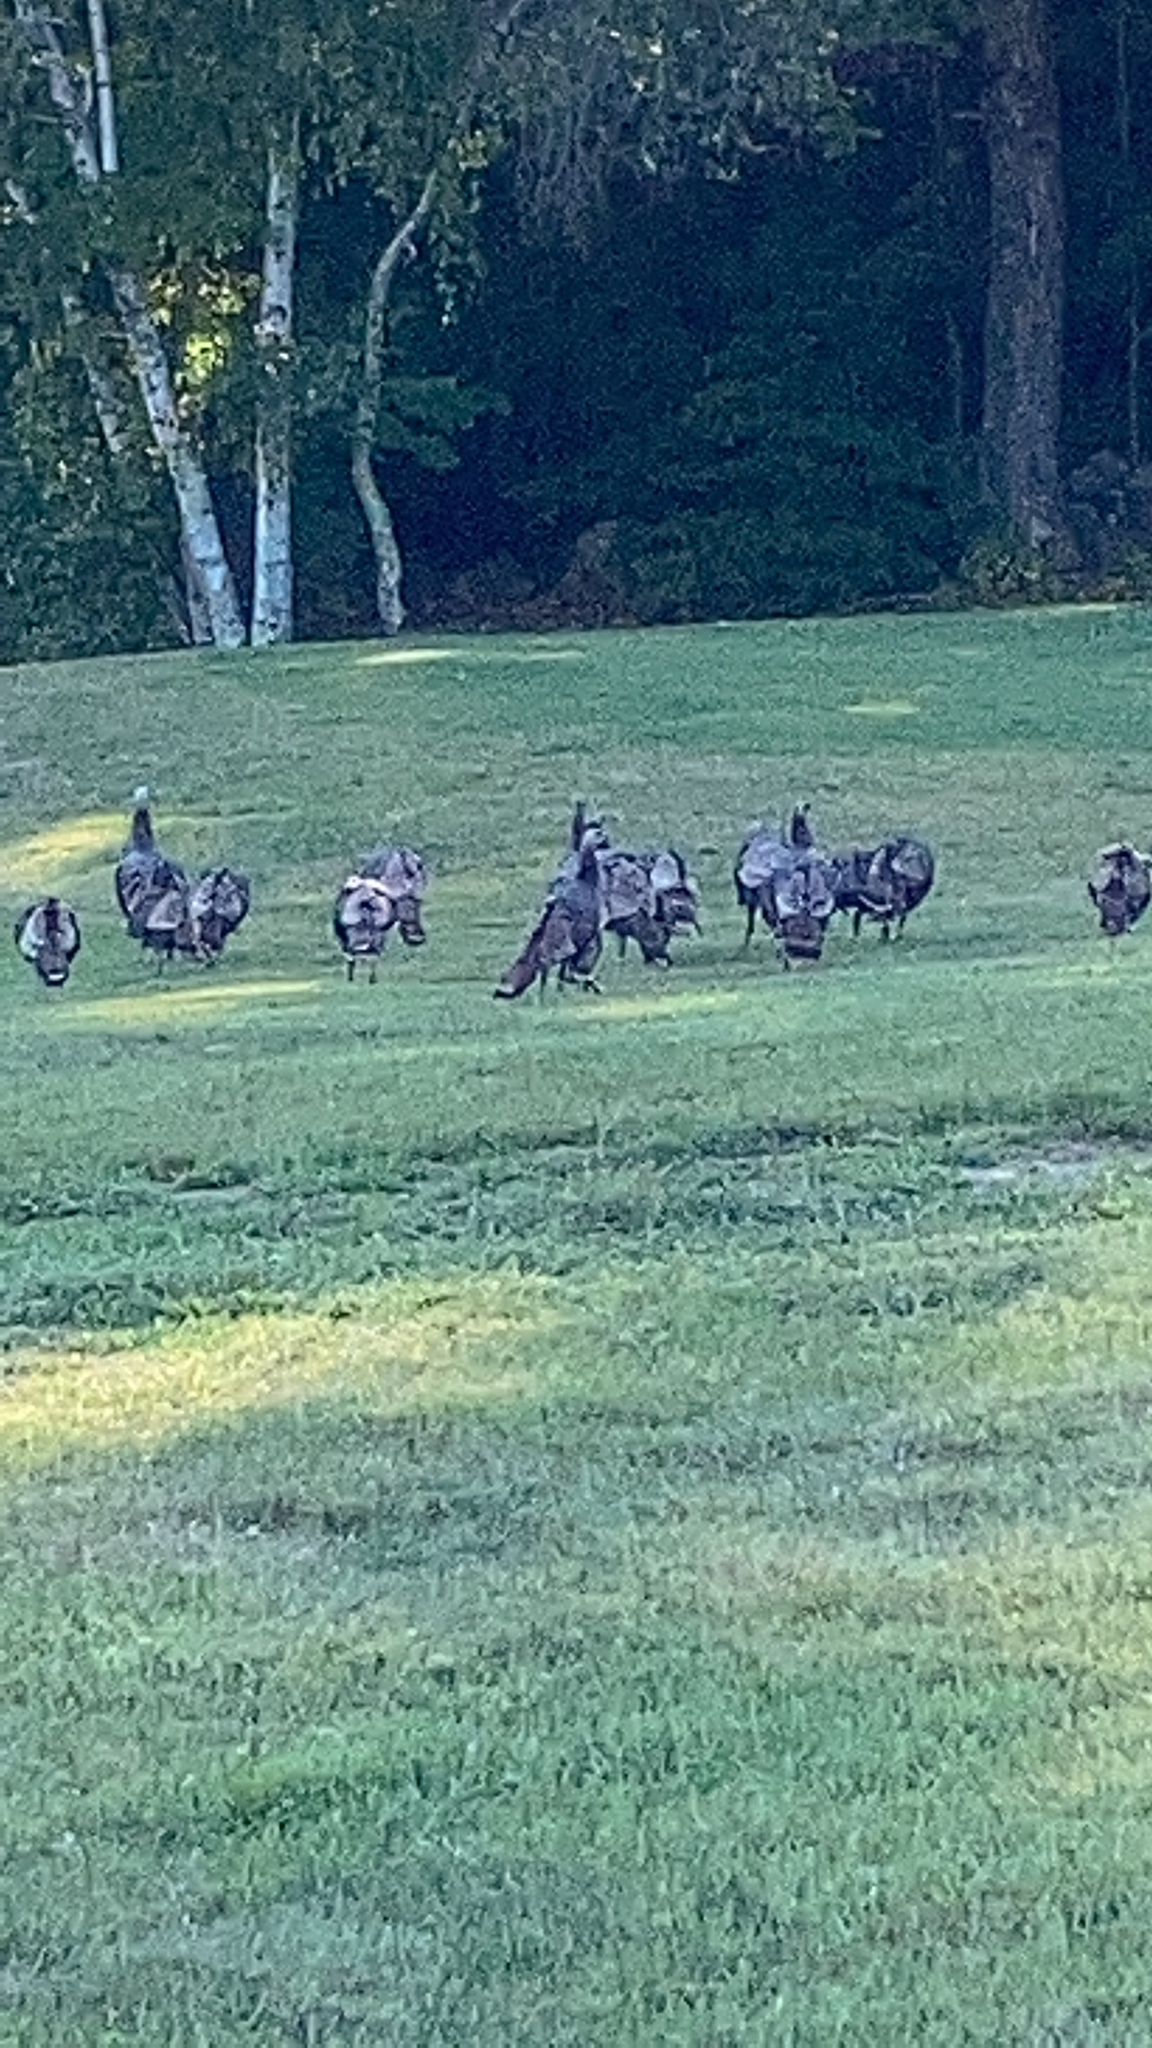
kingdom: Animalia
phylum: Chordata
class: Aves
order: Galliformes
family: Phasianidae
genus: Meleagris
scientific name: Meleagris gallopavo
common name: Wild turkey
